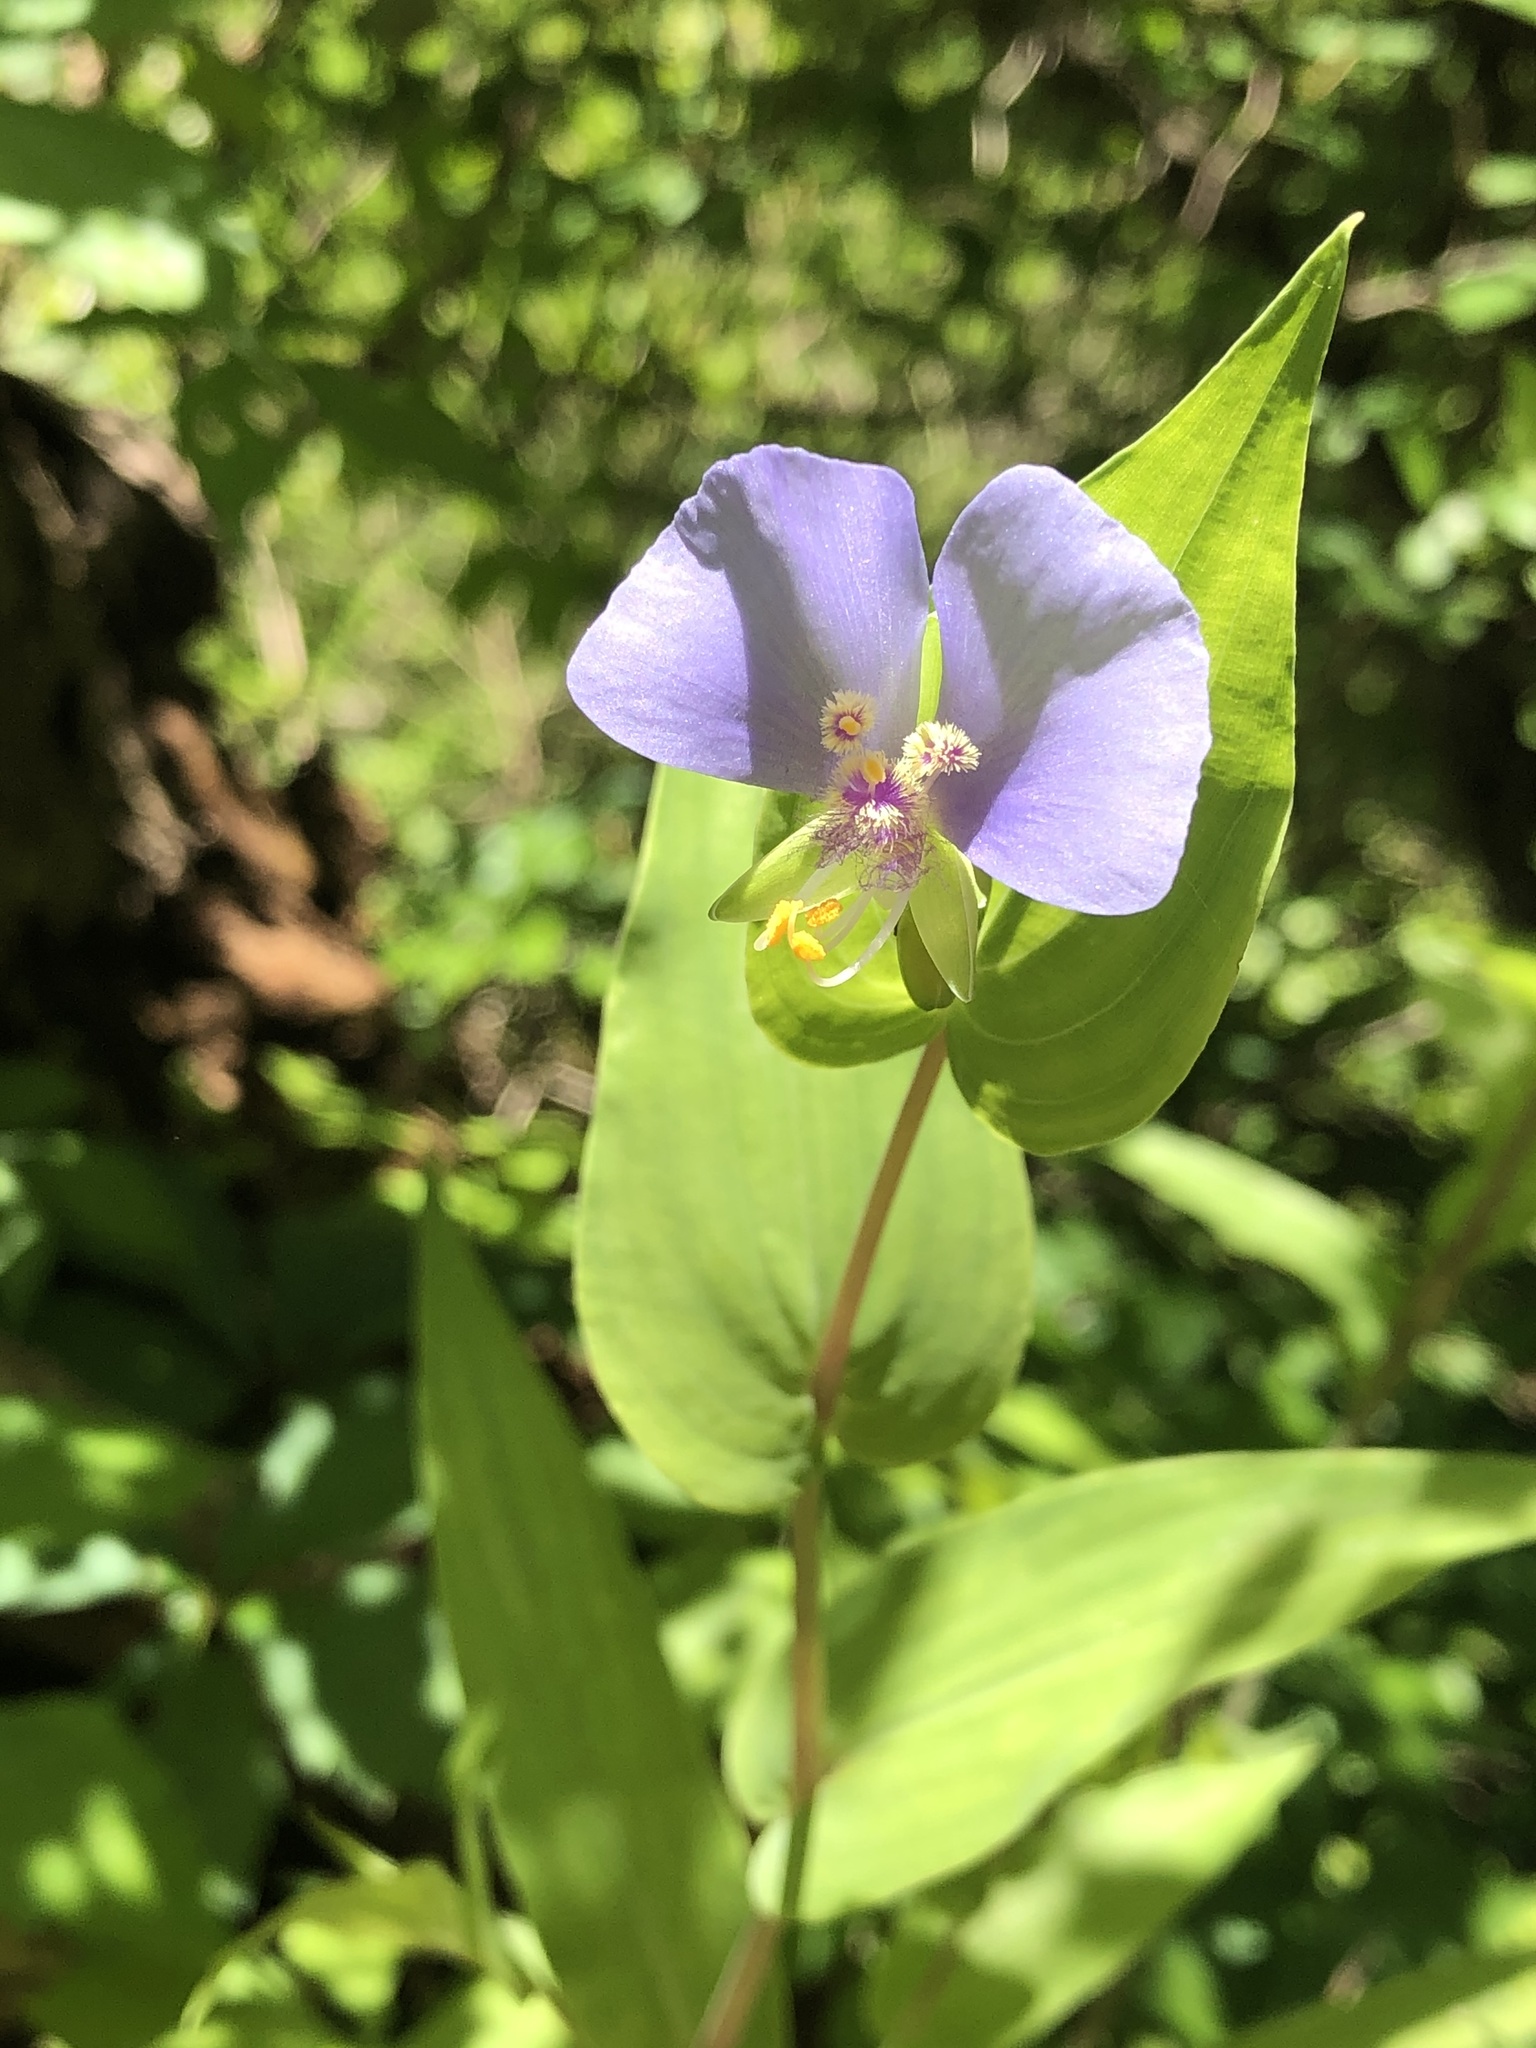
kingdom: Plantae
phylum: Tracheophyta
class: Liliopsida
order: Commelinales
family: Commelinaceae
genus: Tinantia
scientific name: Tinantia anomala
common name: False dayflower
